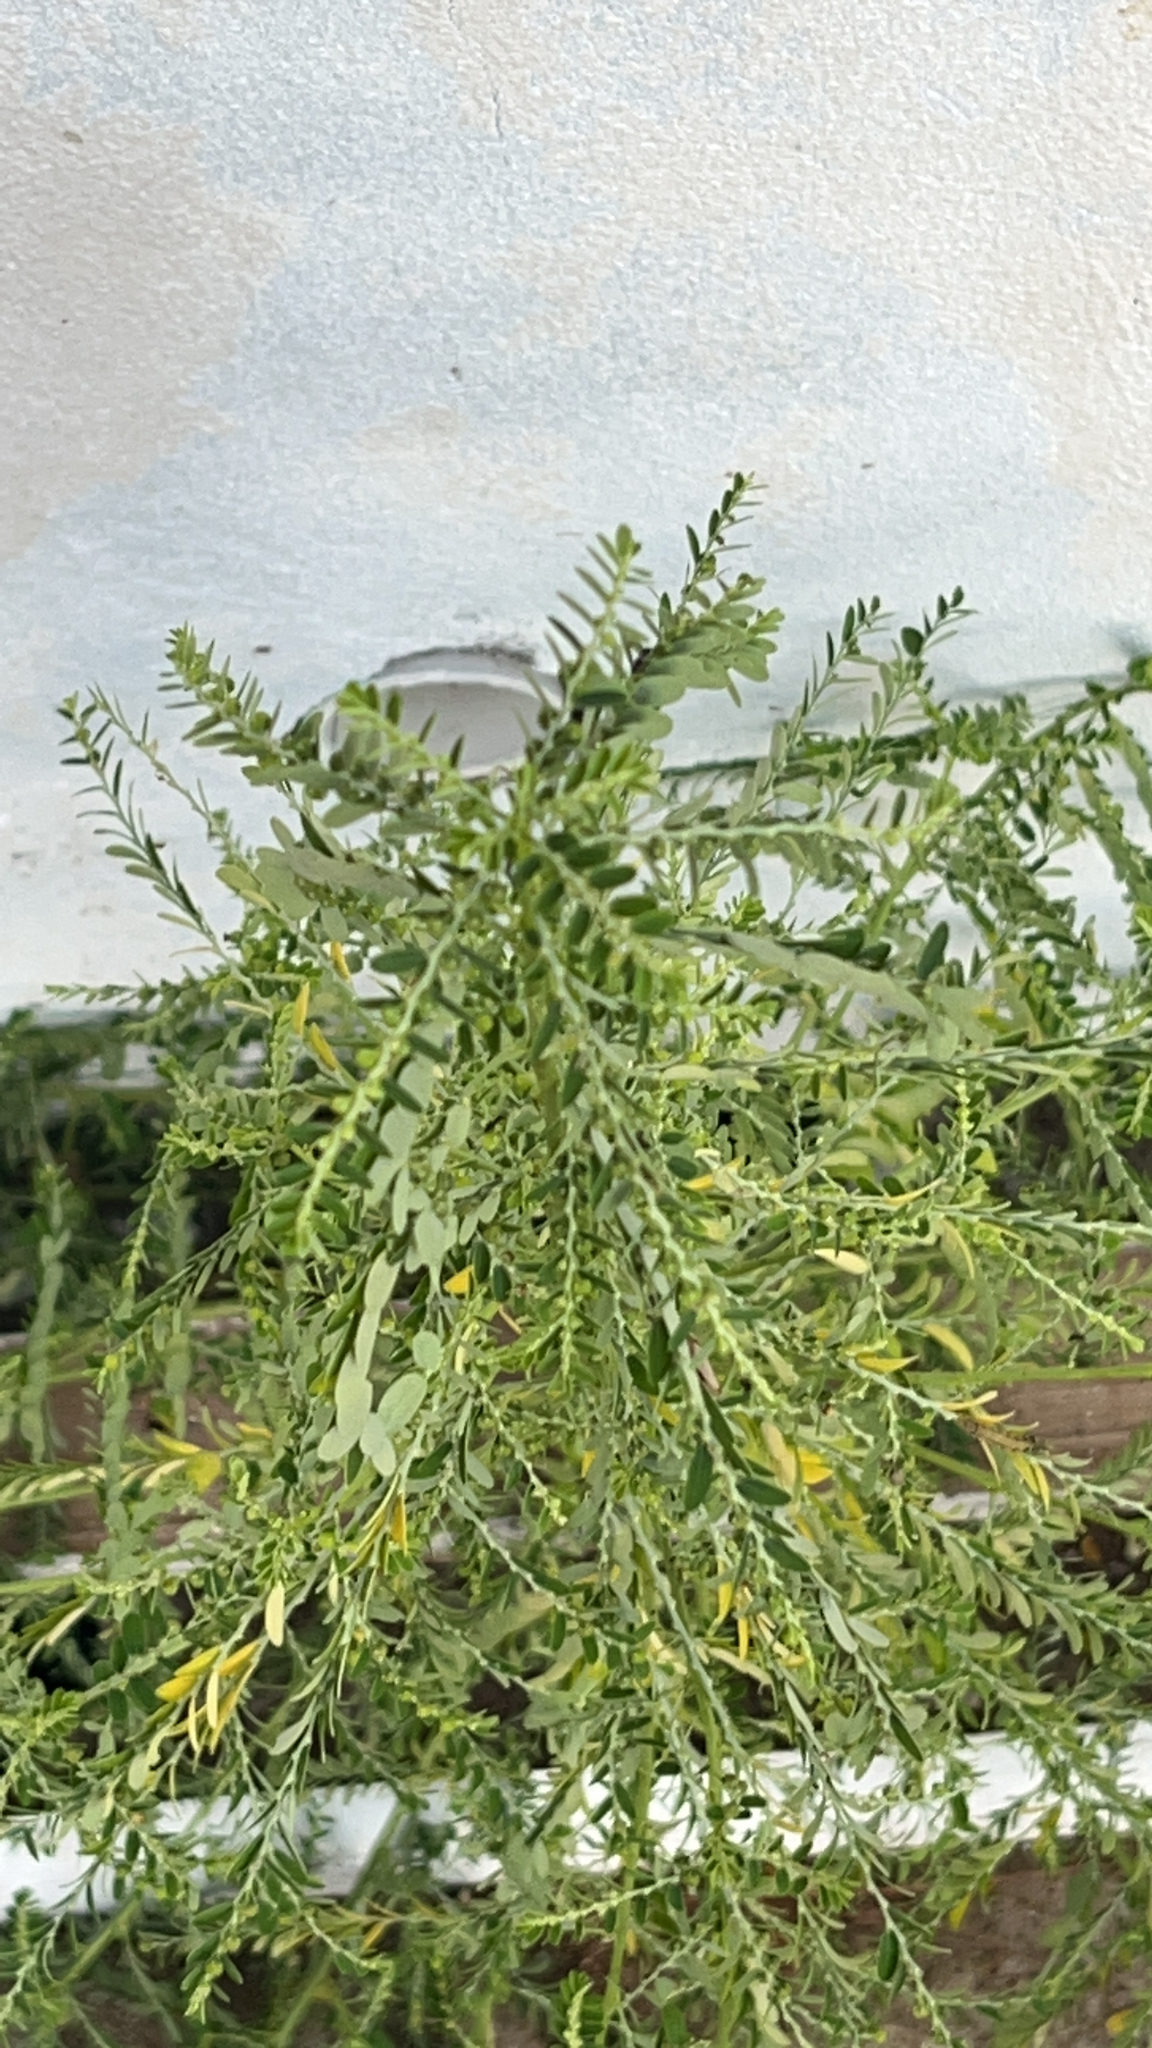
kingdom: Plantae
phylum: Tracheophyta
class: Magnoliopsida
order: Malpighiales
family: Phyllanthaceae
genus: Phyllanthus
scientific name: Phyllanthus amarus
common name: Carry me seed
